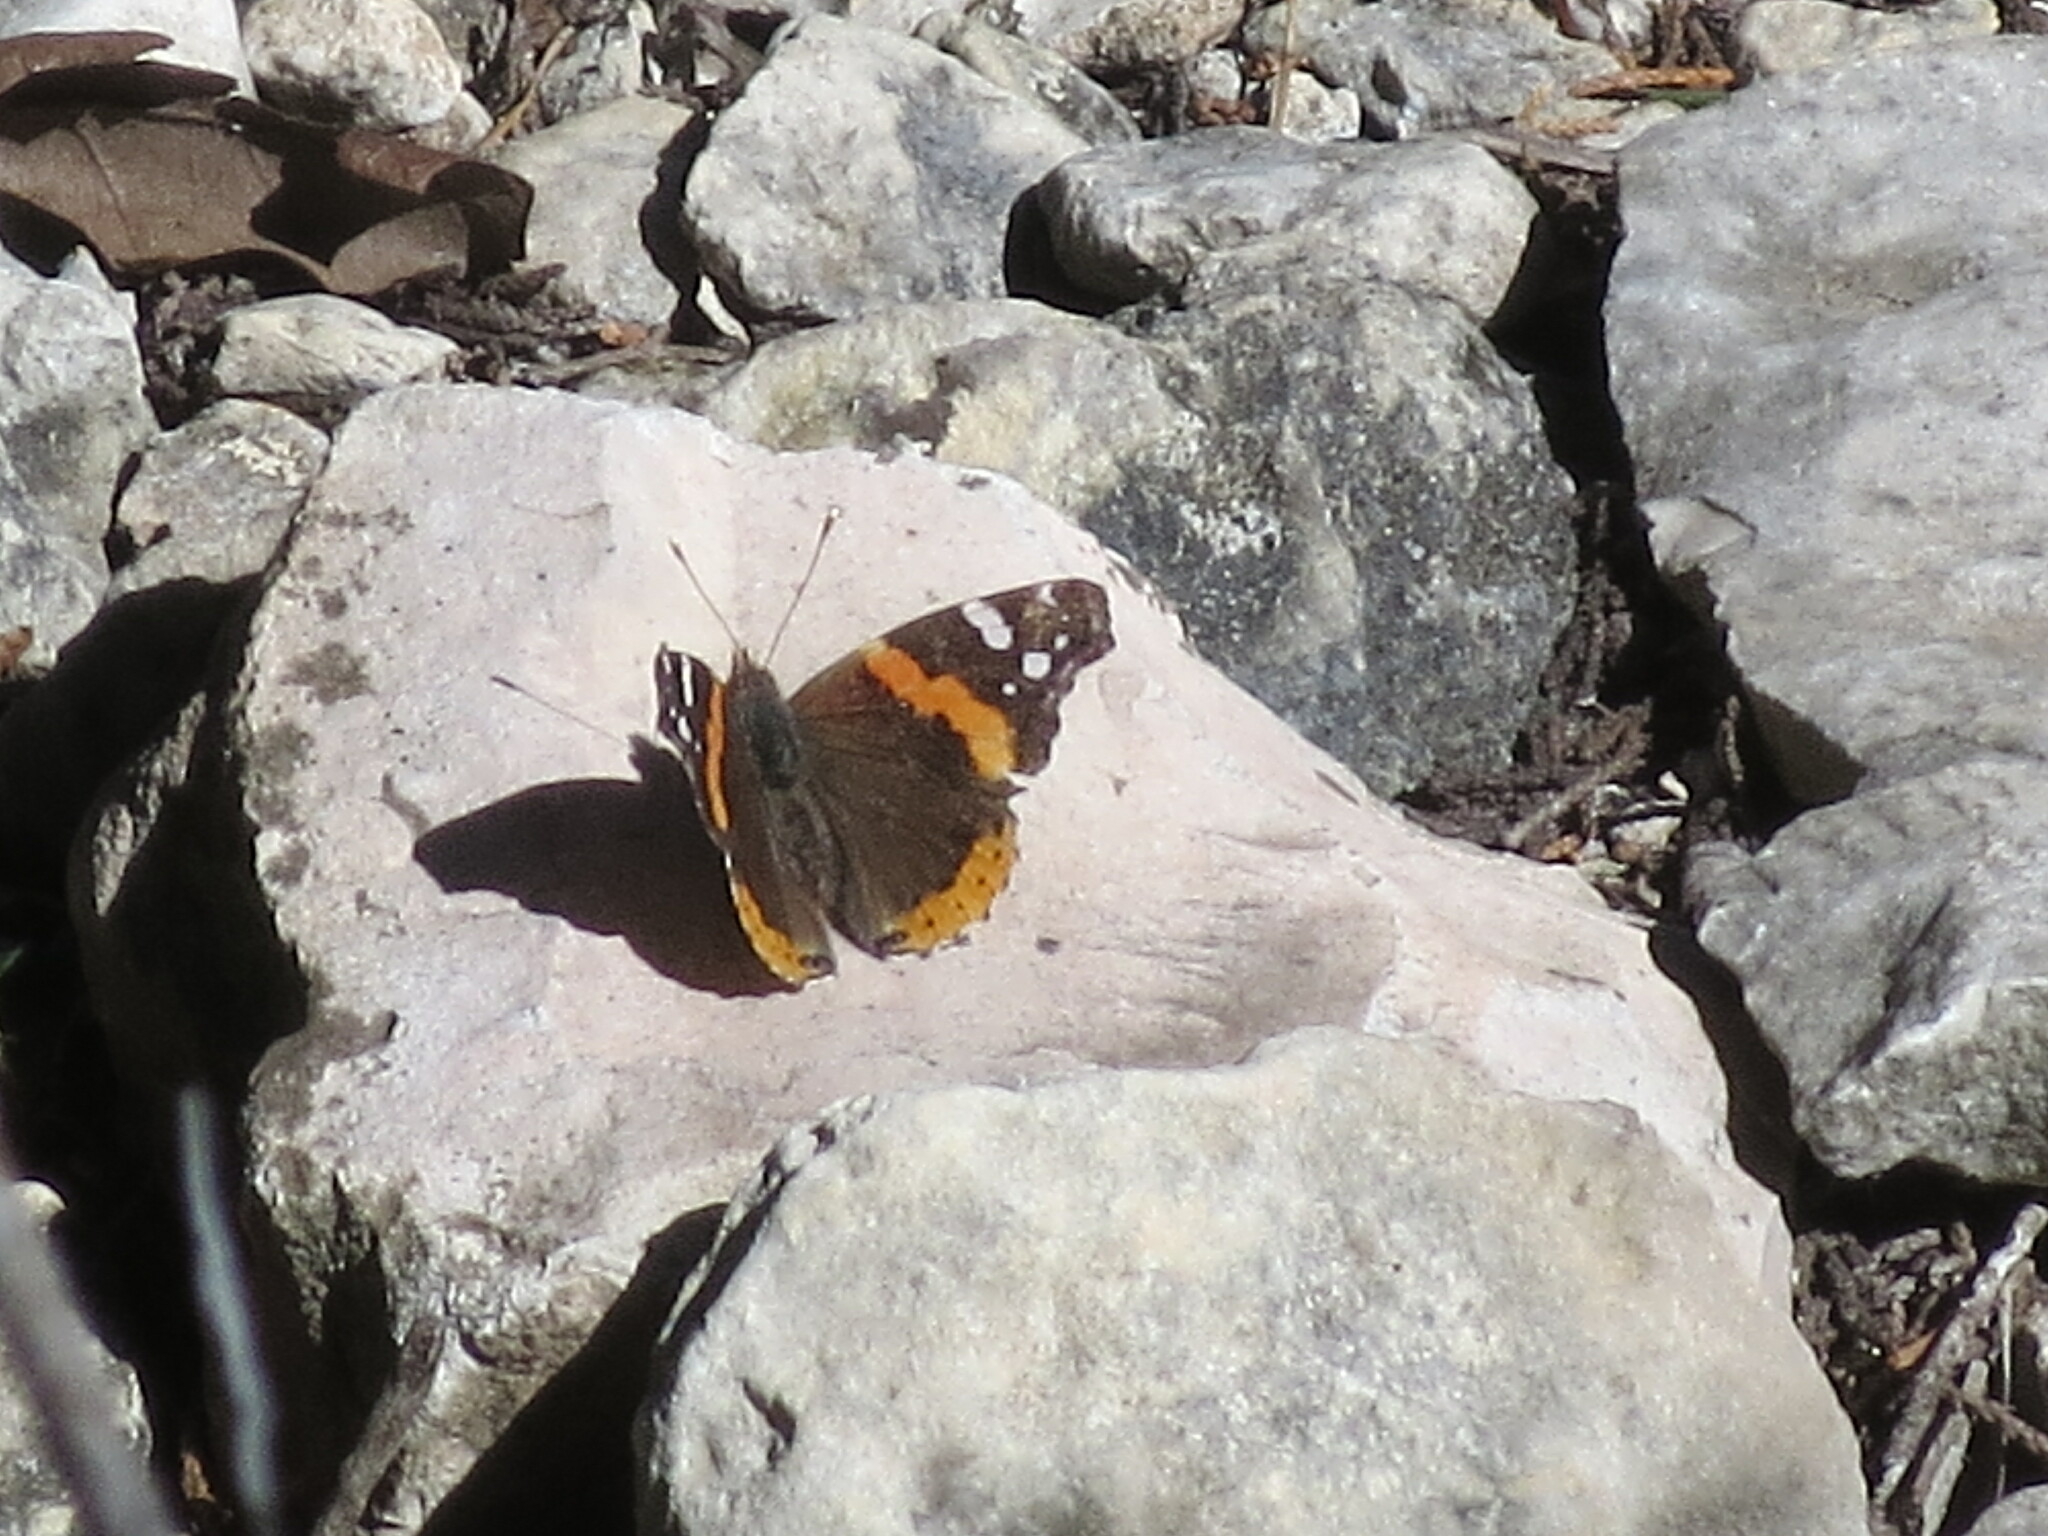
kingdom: Animalia
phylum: Arthropoda
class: Insecta
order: Lepidoptera
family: Nymphalidae
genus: Vanessa
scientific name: Vanessa atalanta
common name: Red admiral
